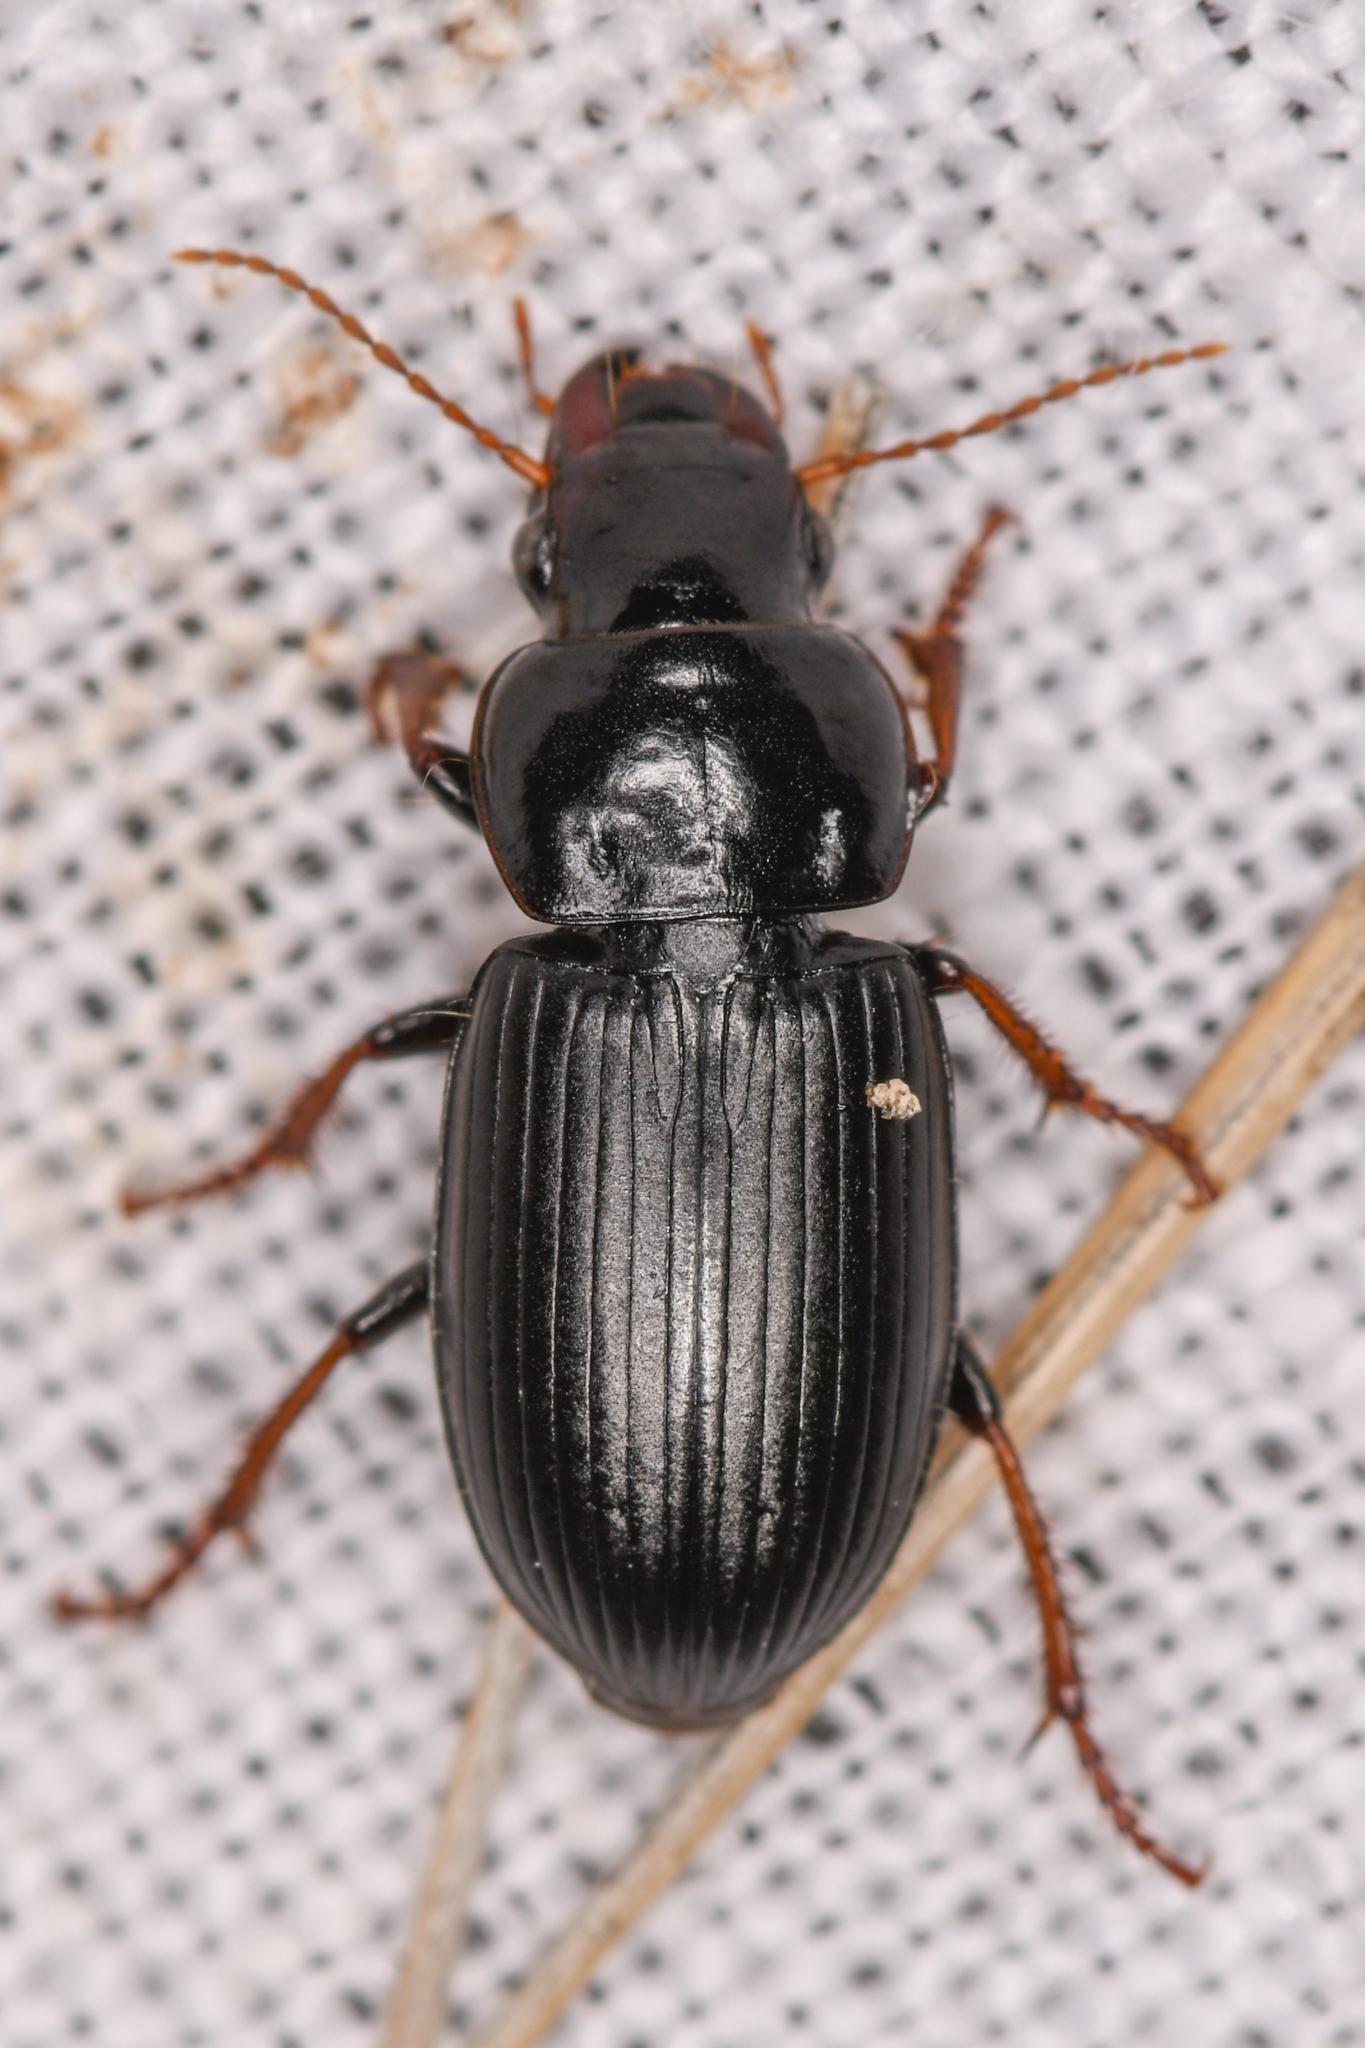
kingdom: Animalia
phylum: Arthropoda
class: Insecta
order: Coleoptera
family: Carabidae
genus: Harpalus
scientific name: Harpalus nigritarsis
